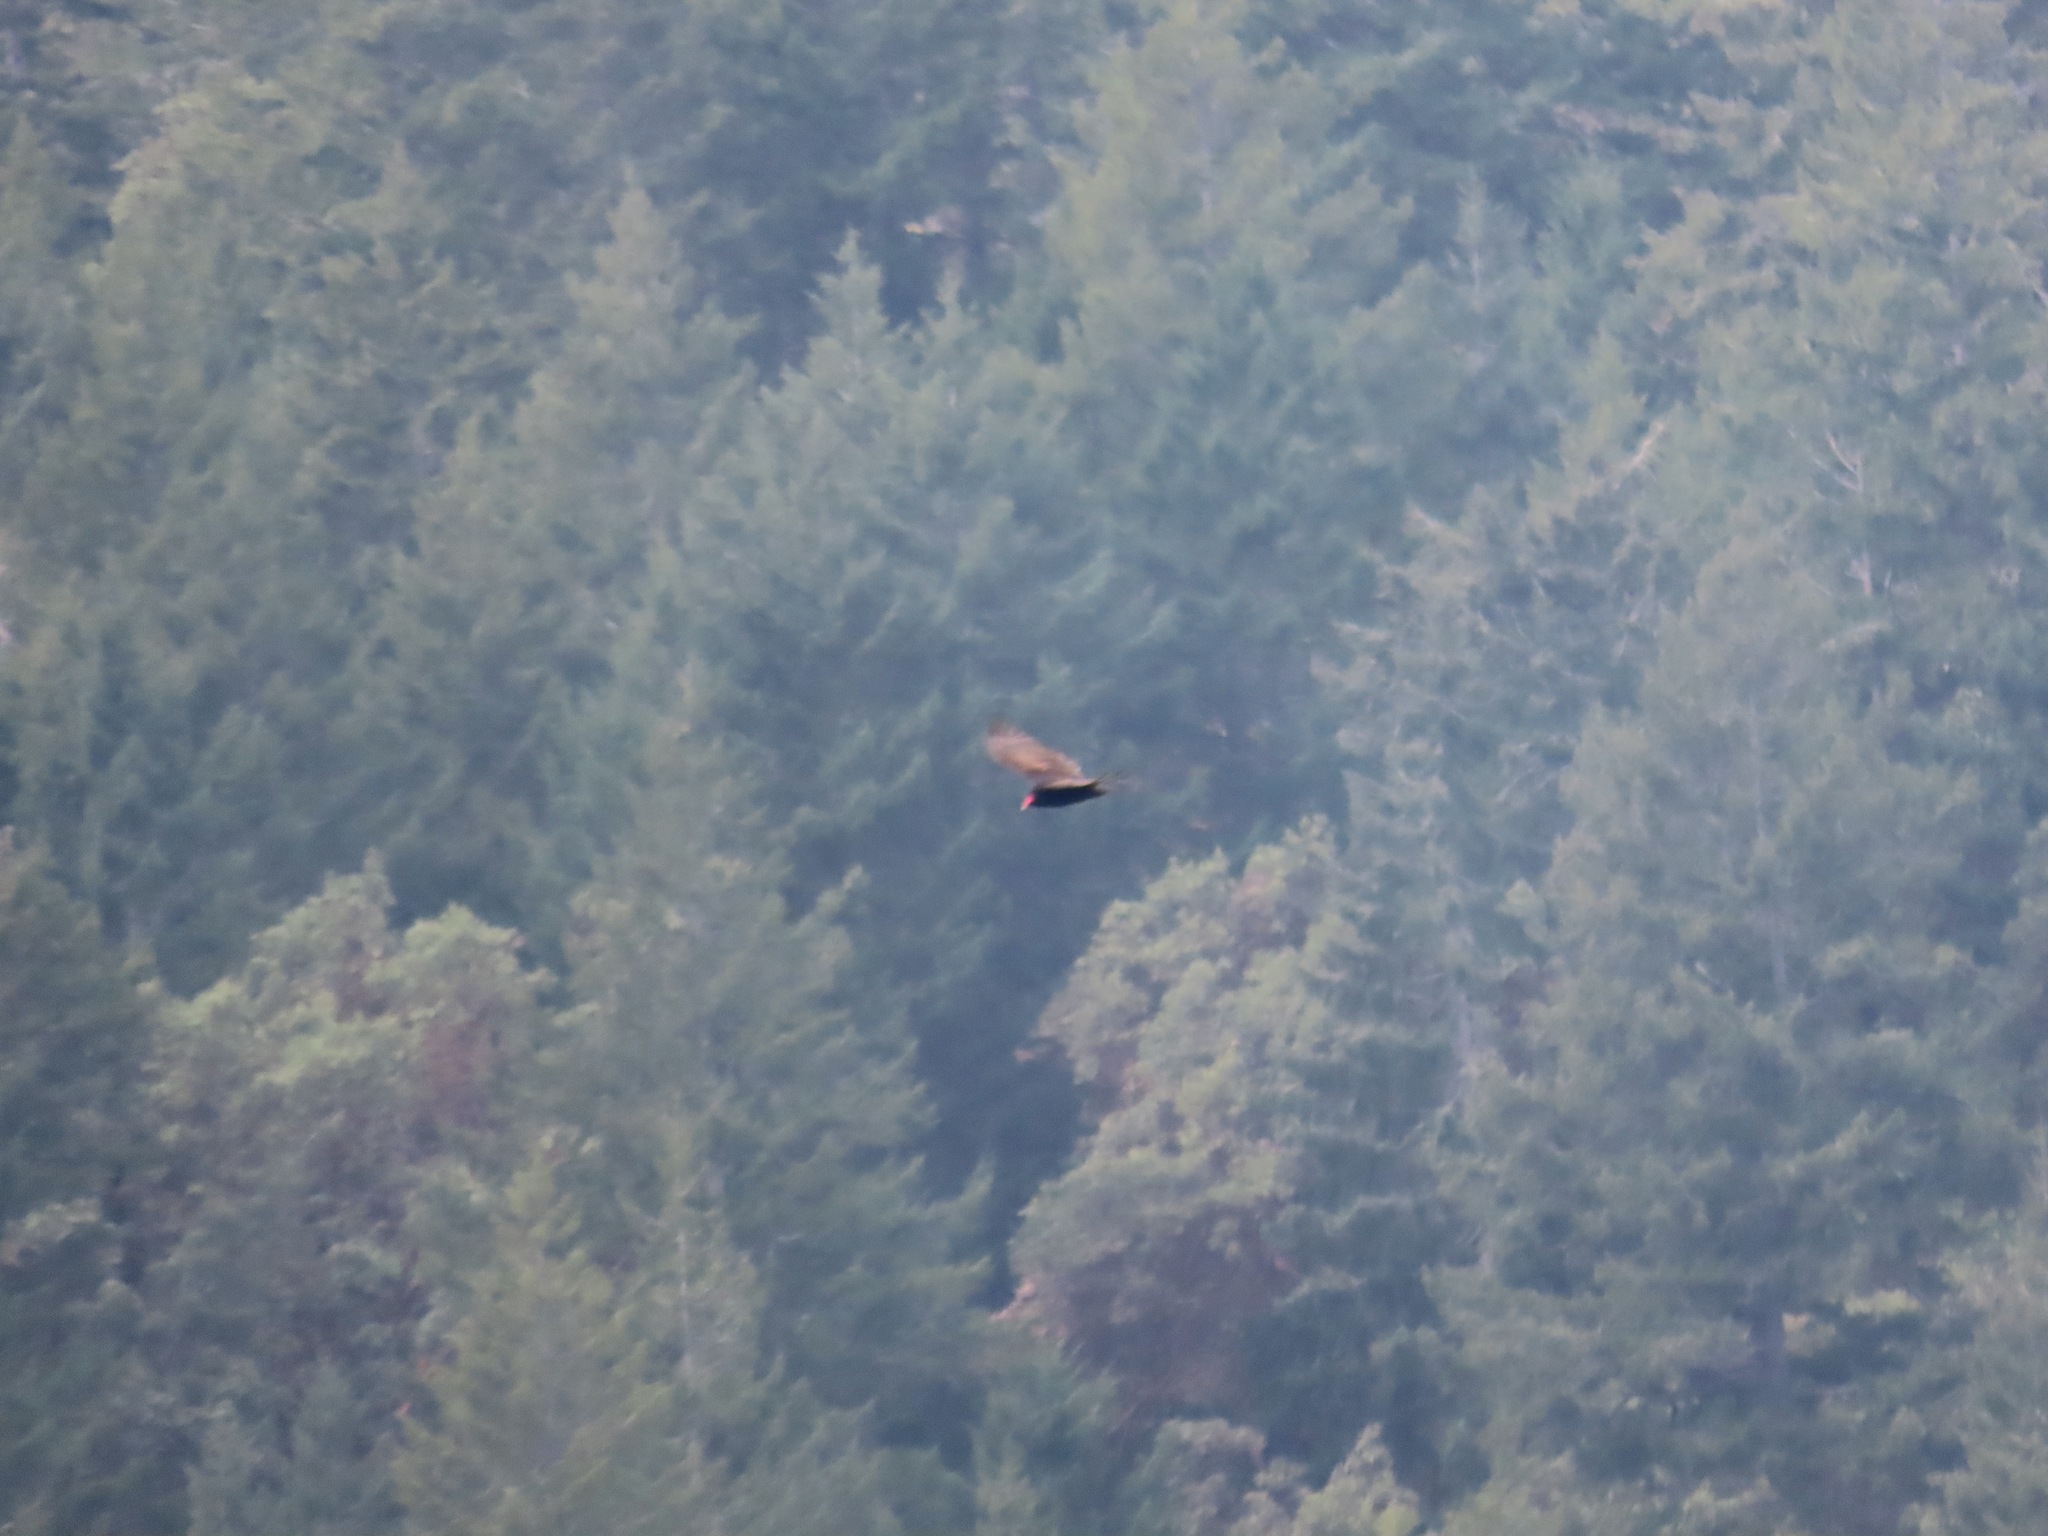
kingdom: Animalia
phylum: Chordata
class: Aves
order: Accipitriformes
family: Cathartidae
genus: Cathartes
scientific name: Cathartes aura
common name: Turkey vulture
